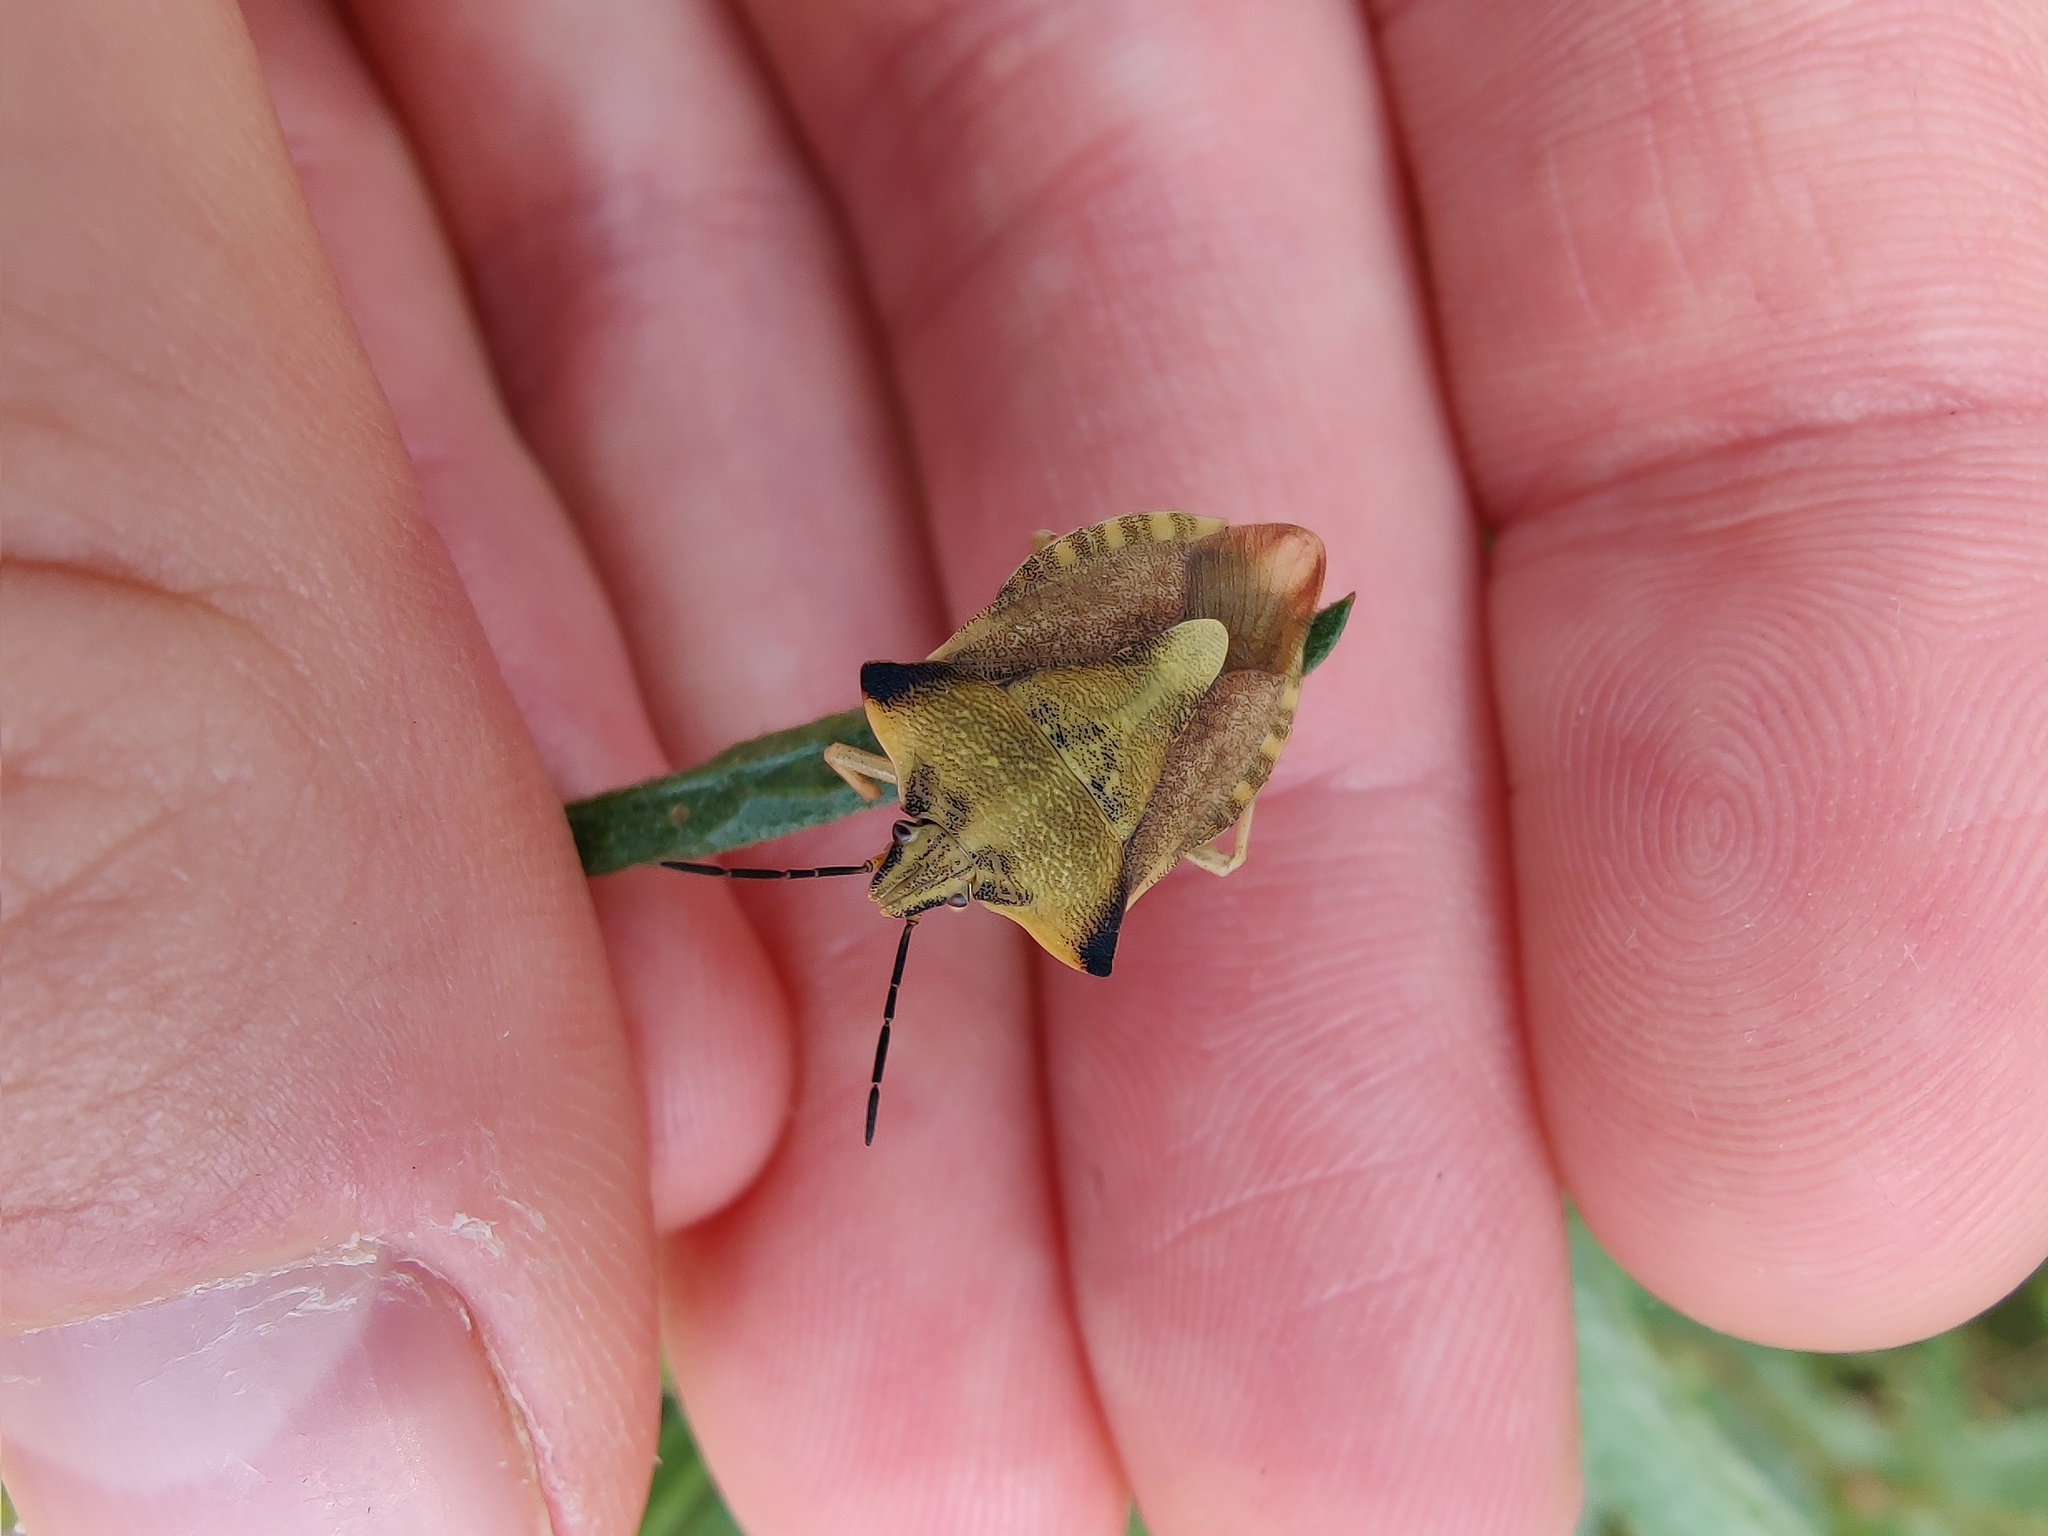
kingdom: Animalia
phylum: Arthropoda
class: Insecta
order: Hemiptera
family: Pentatomidae
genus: Carpocoris
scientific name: Carpocoris fuscispinus
